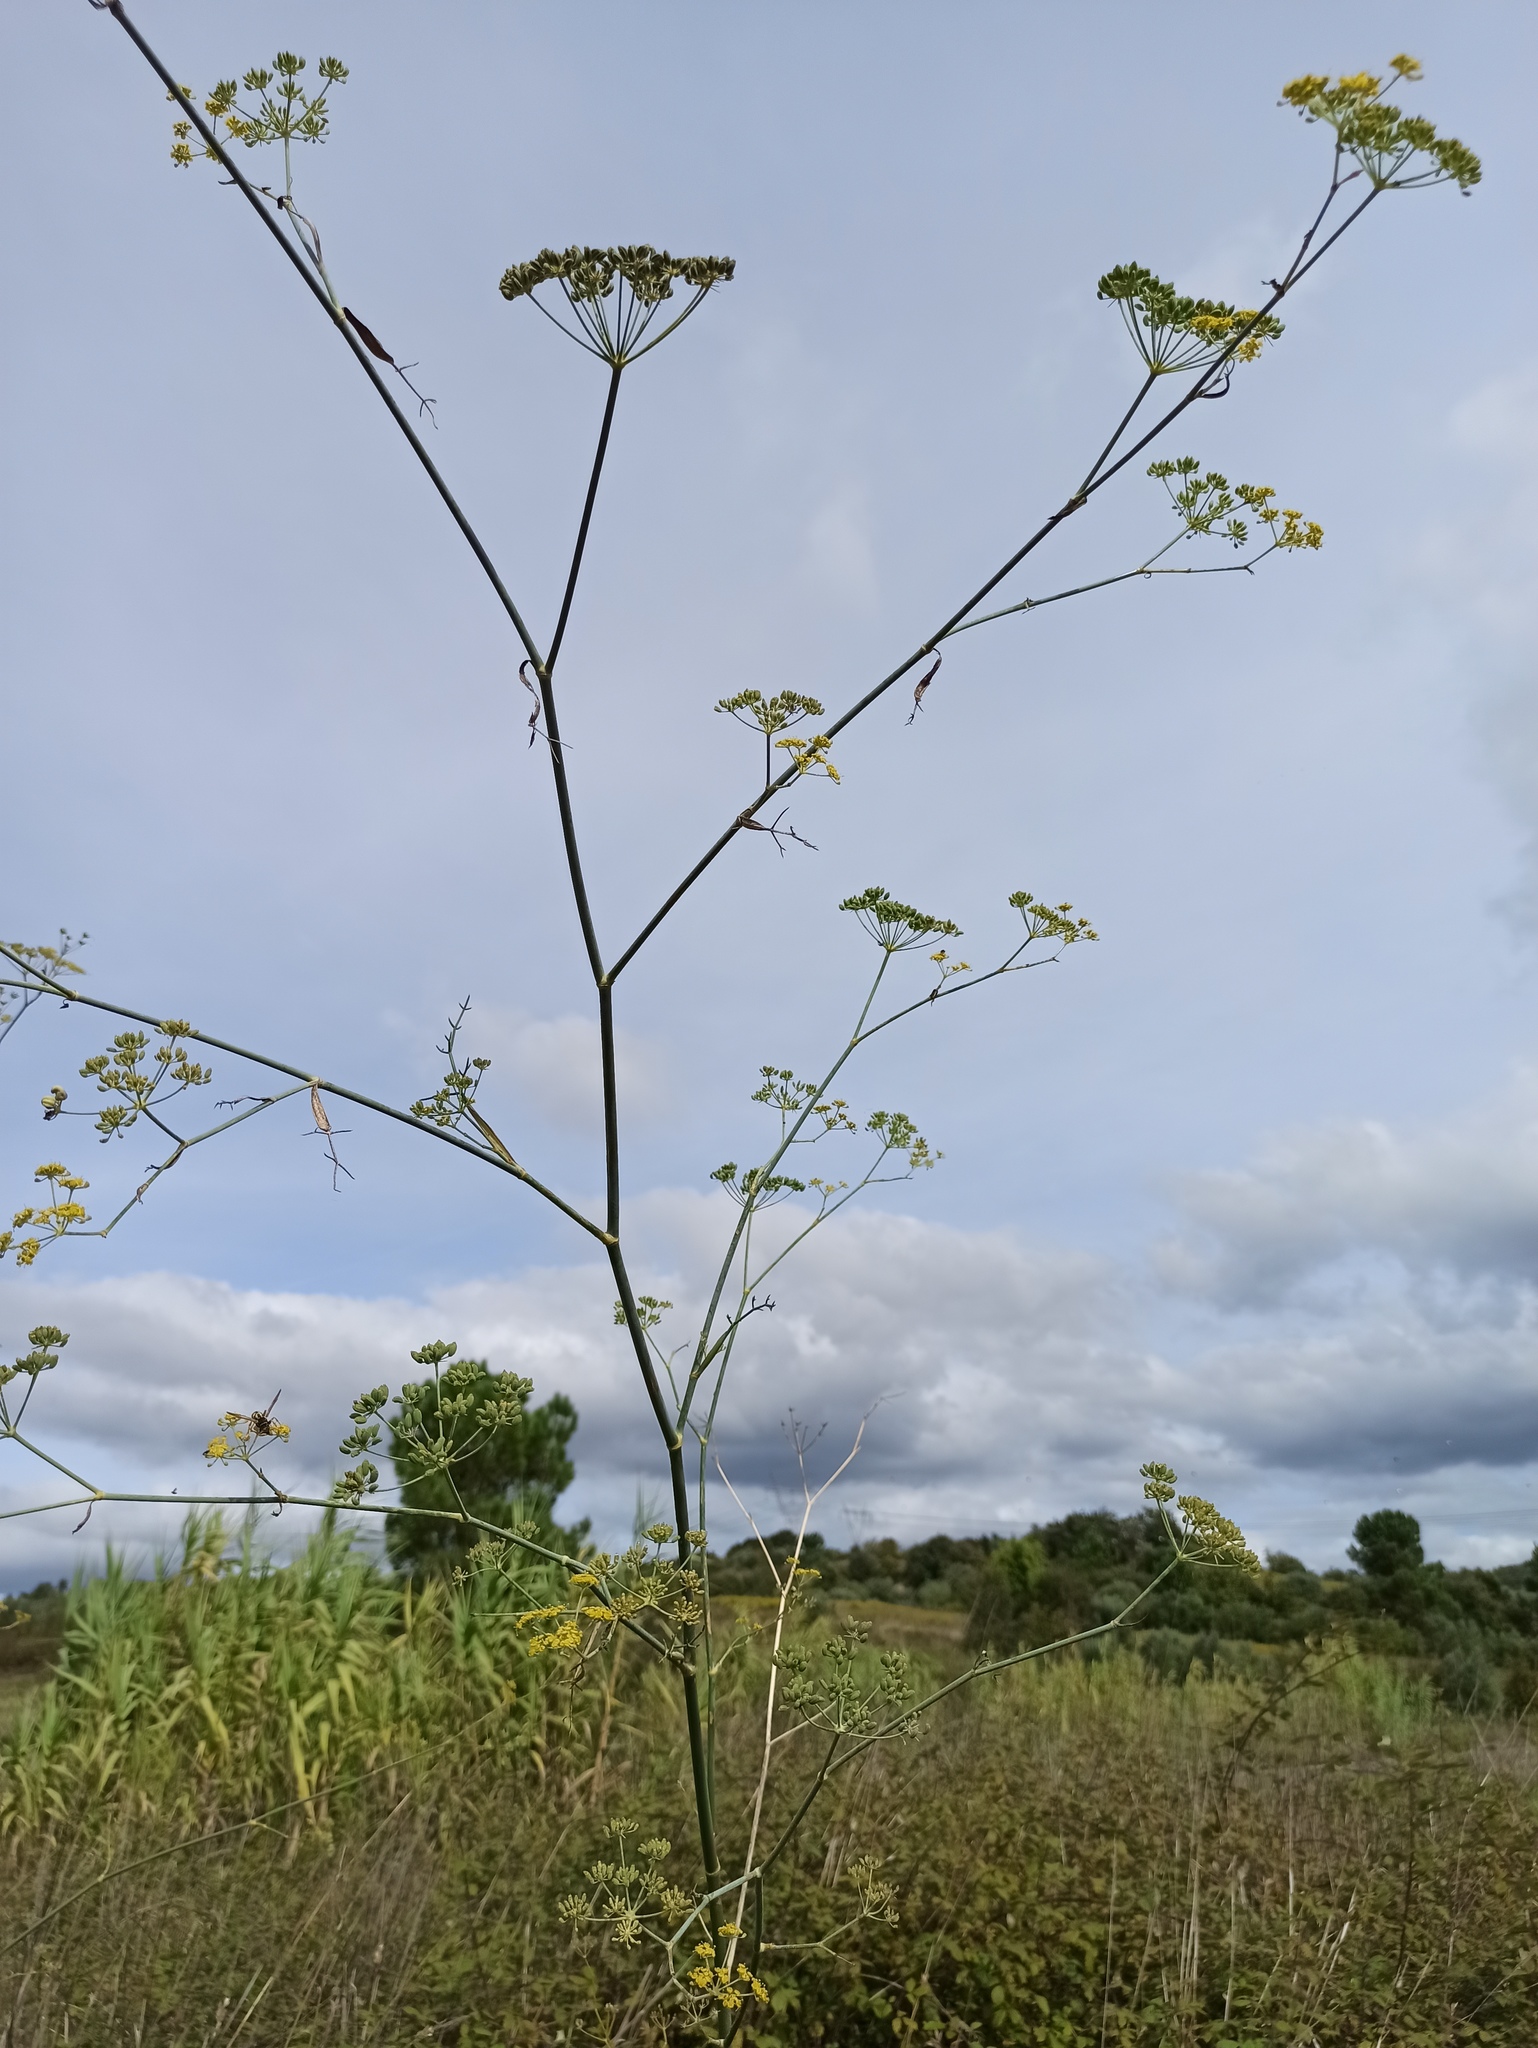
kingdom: Plantae
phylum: Tracheophyta
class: Magnoliopsida
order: Apiales
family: Apiaceae
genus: Foeniculum
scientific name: Foeniculum vulgare
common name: Fennel
